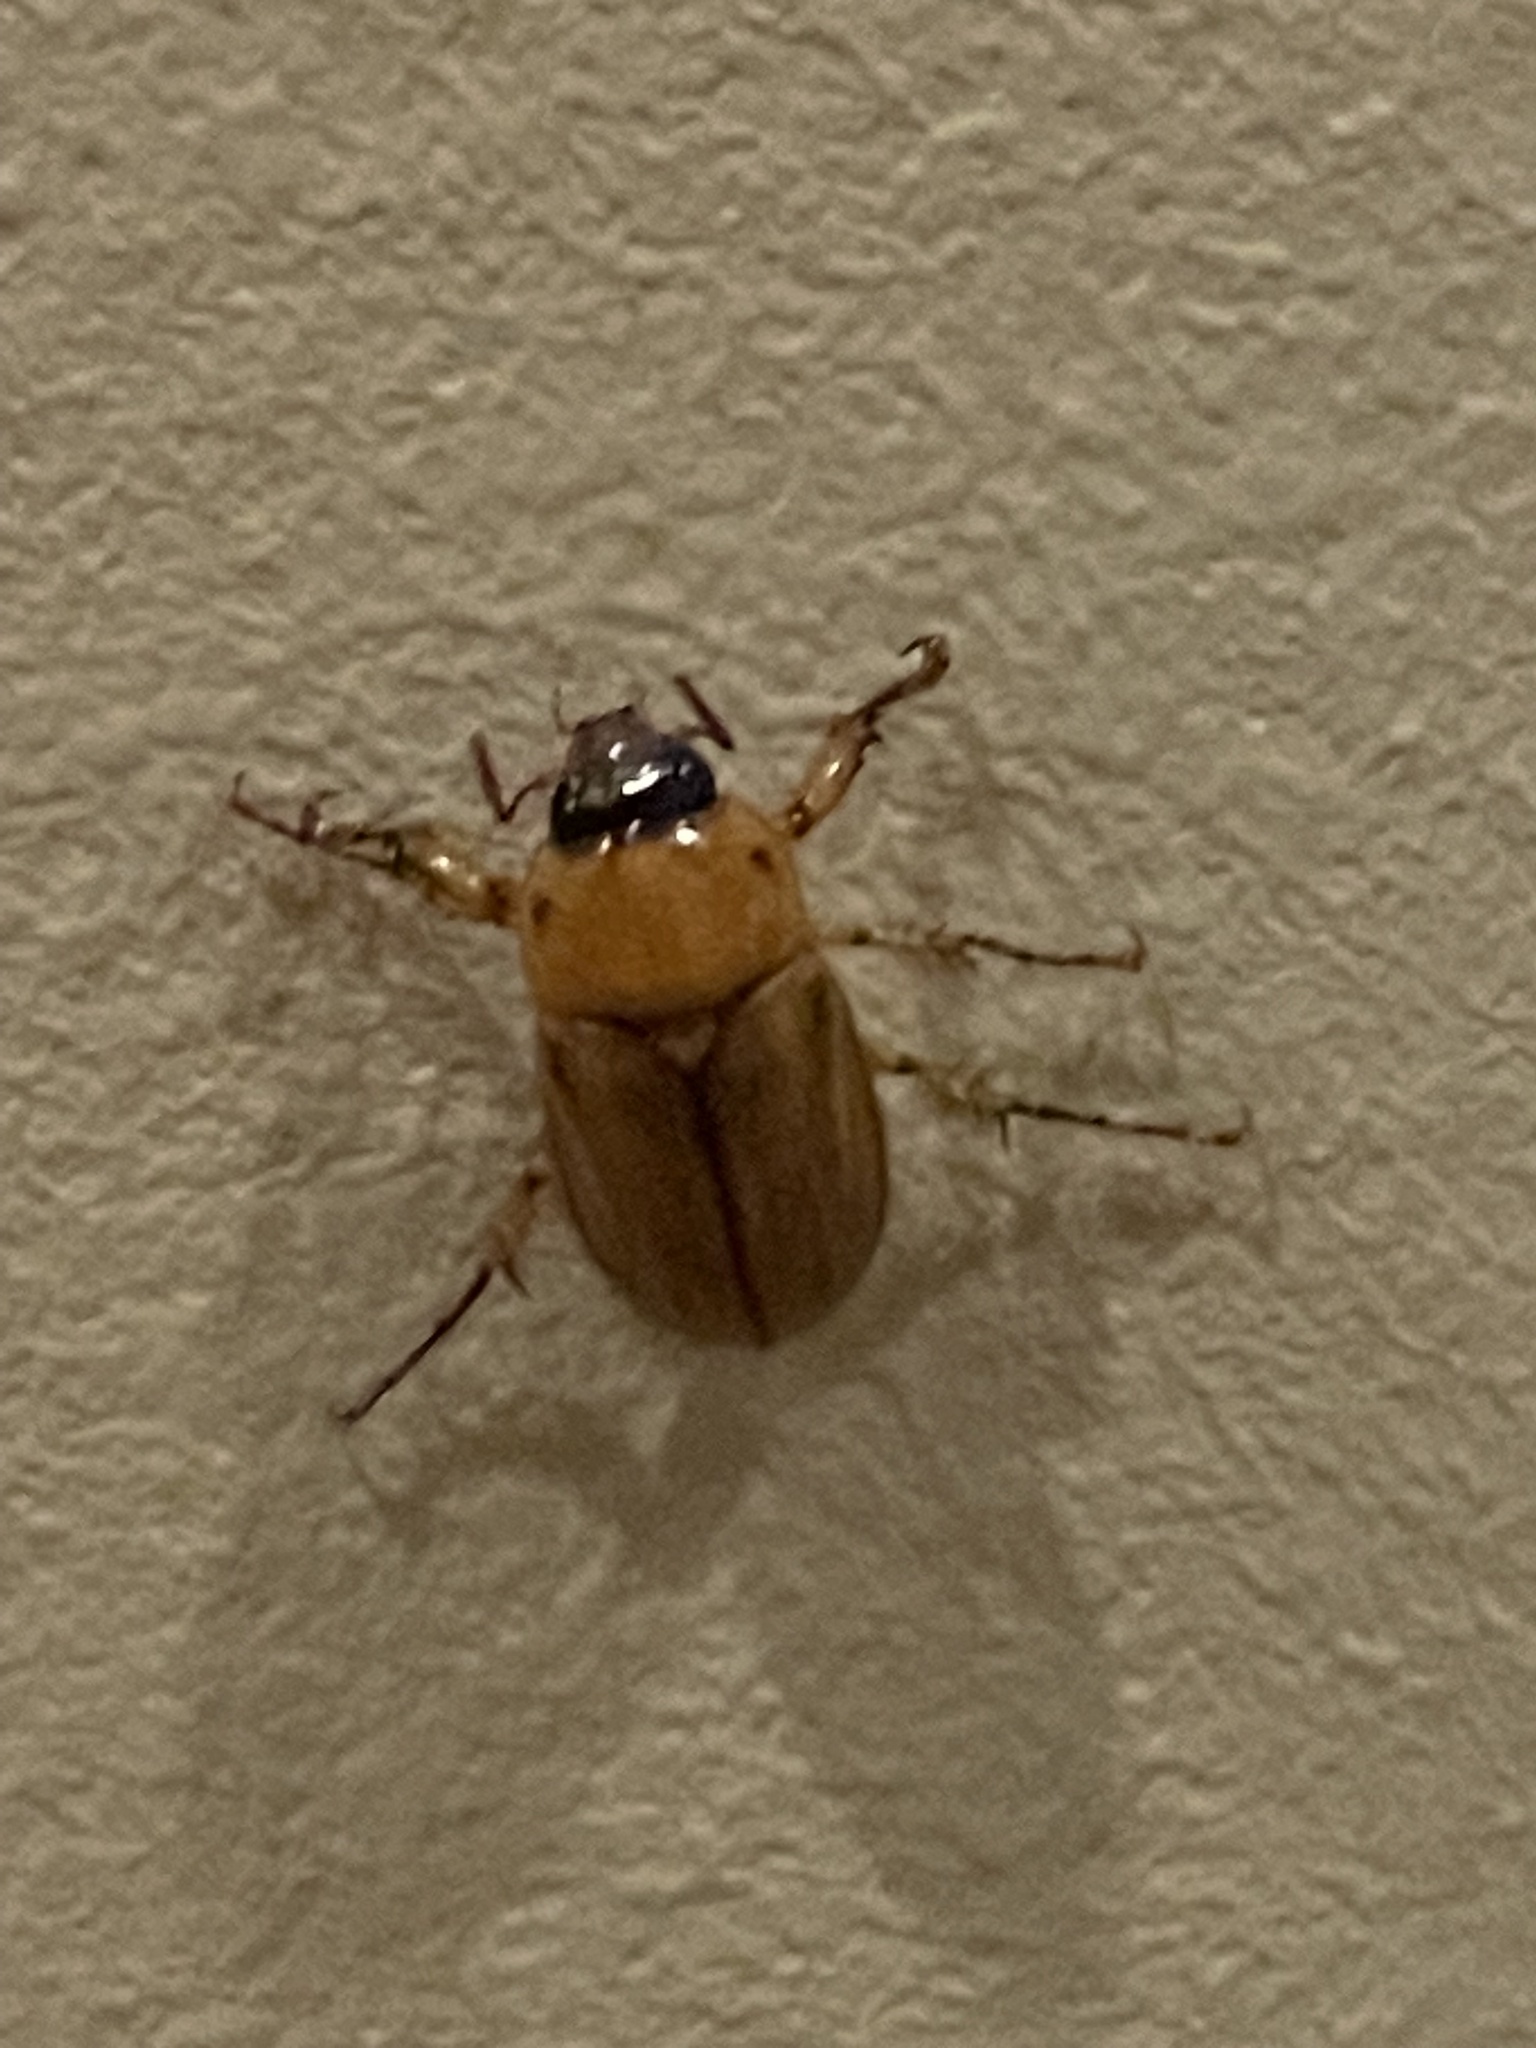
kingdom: Animalia
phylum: Arthropoda
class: Insecta
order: Coleoptera
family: Scarabaeidae
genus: Cyclocephala
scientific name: Cyclocephala lurida
